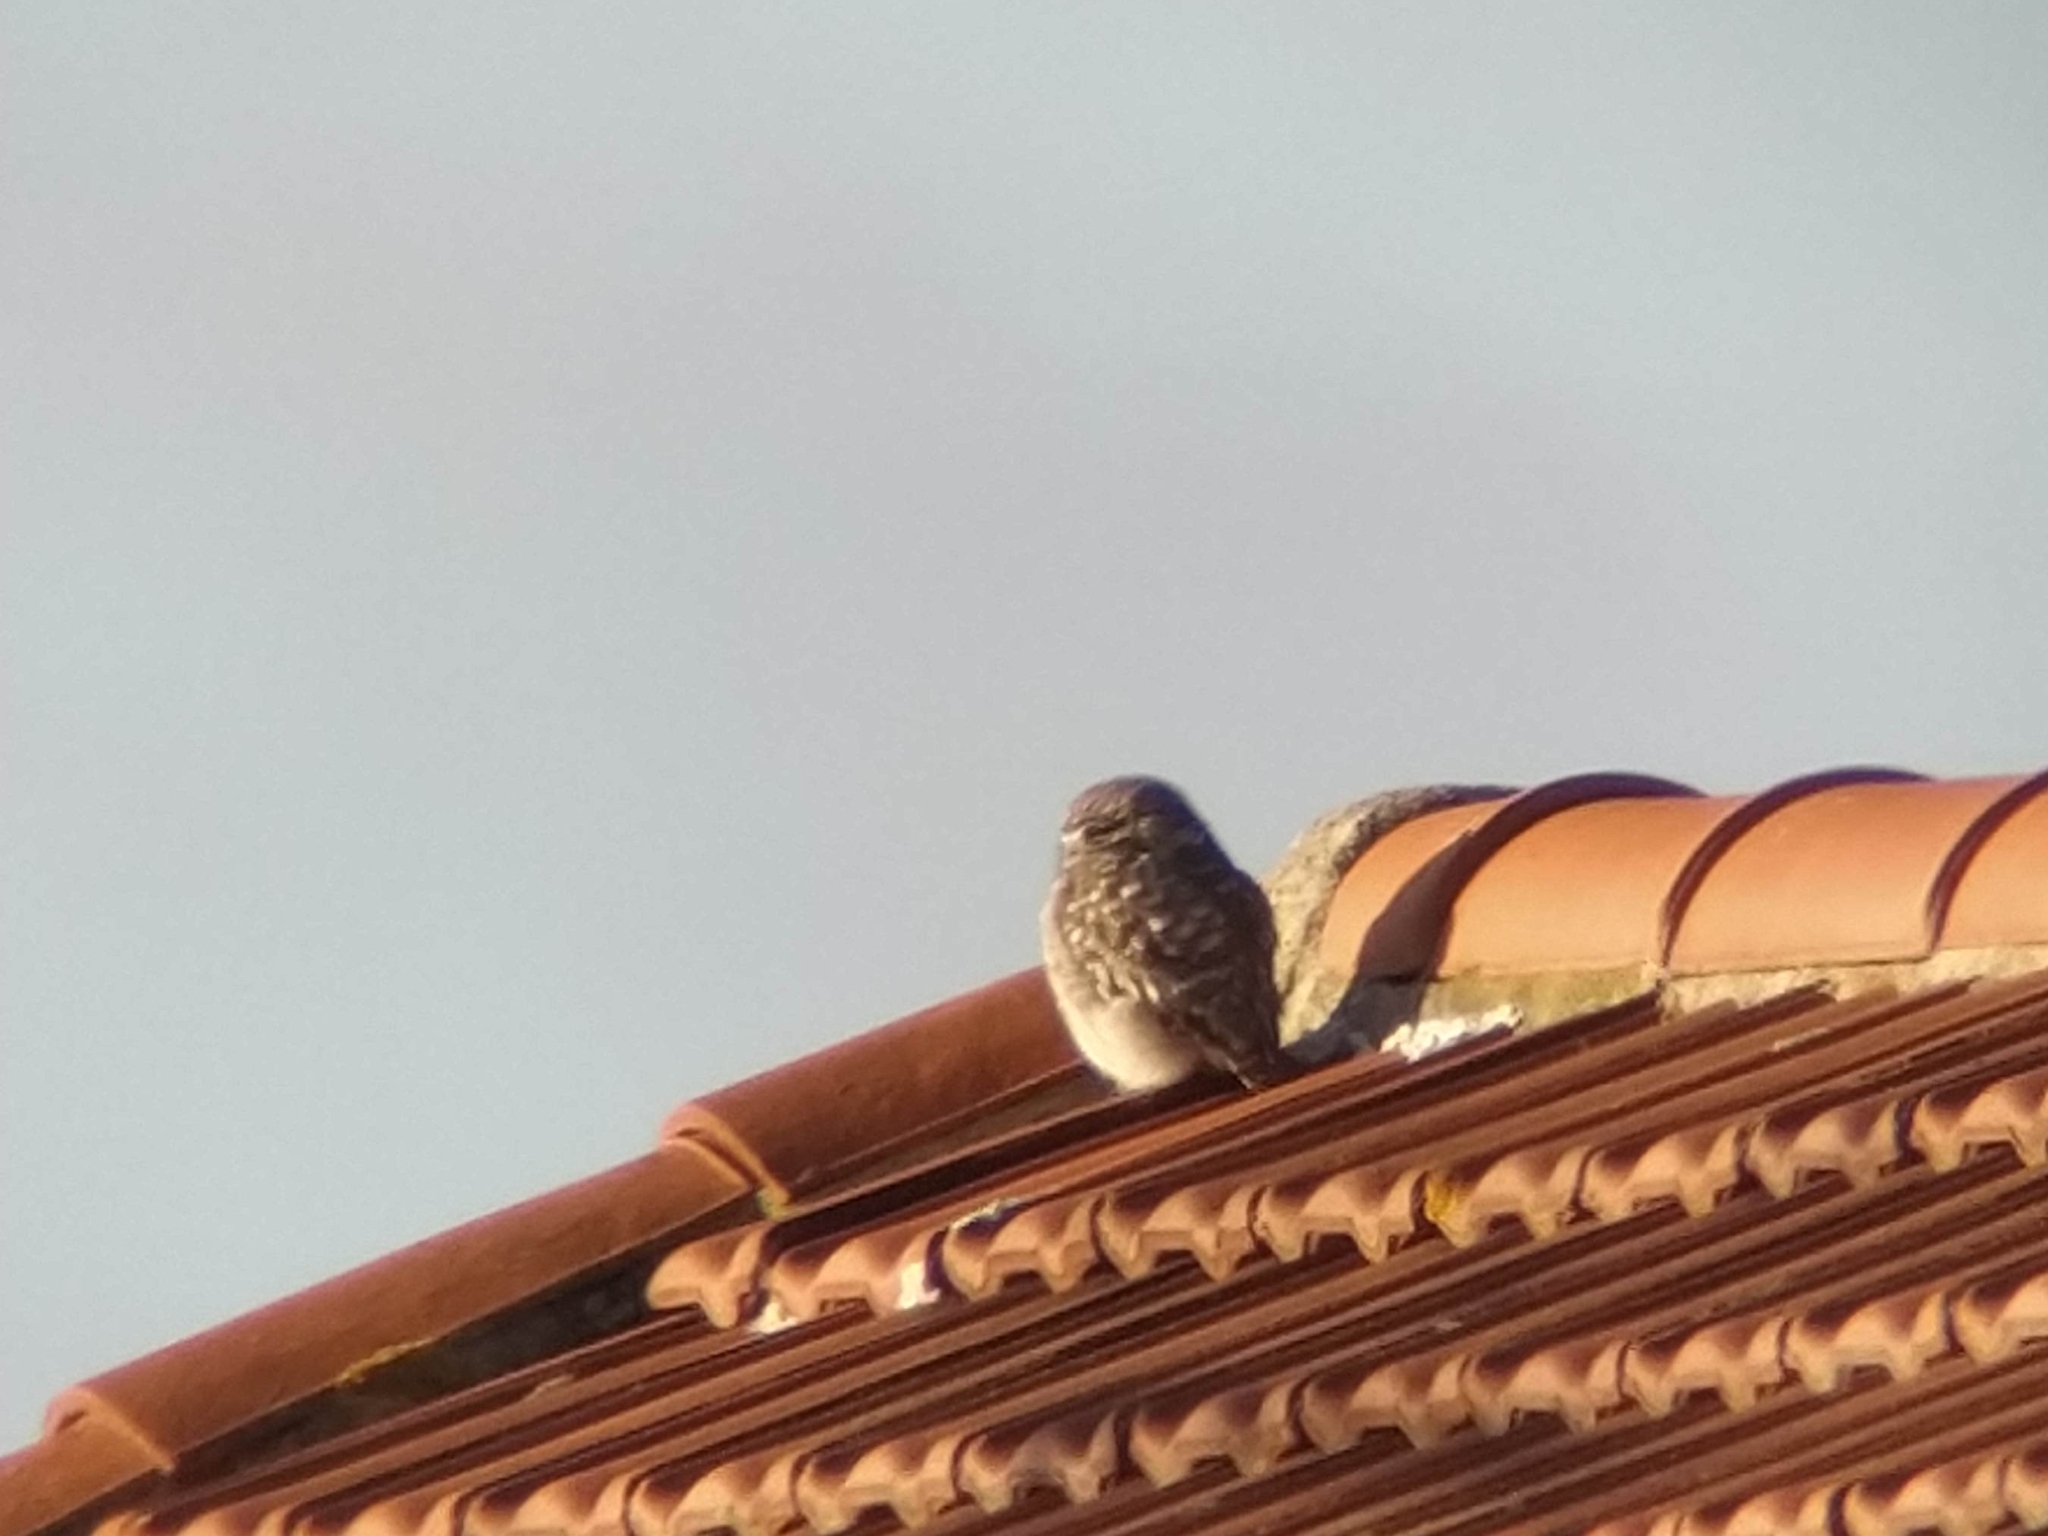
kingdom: Animalia
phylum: Chordata
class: Aves
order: Strigiformes
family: Strigidae
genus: Athene
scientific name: Athene noctua
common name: Little owl
